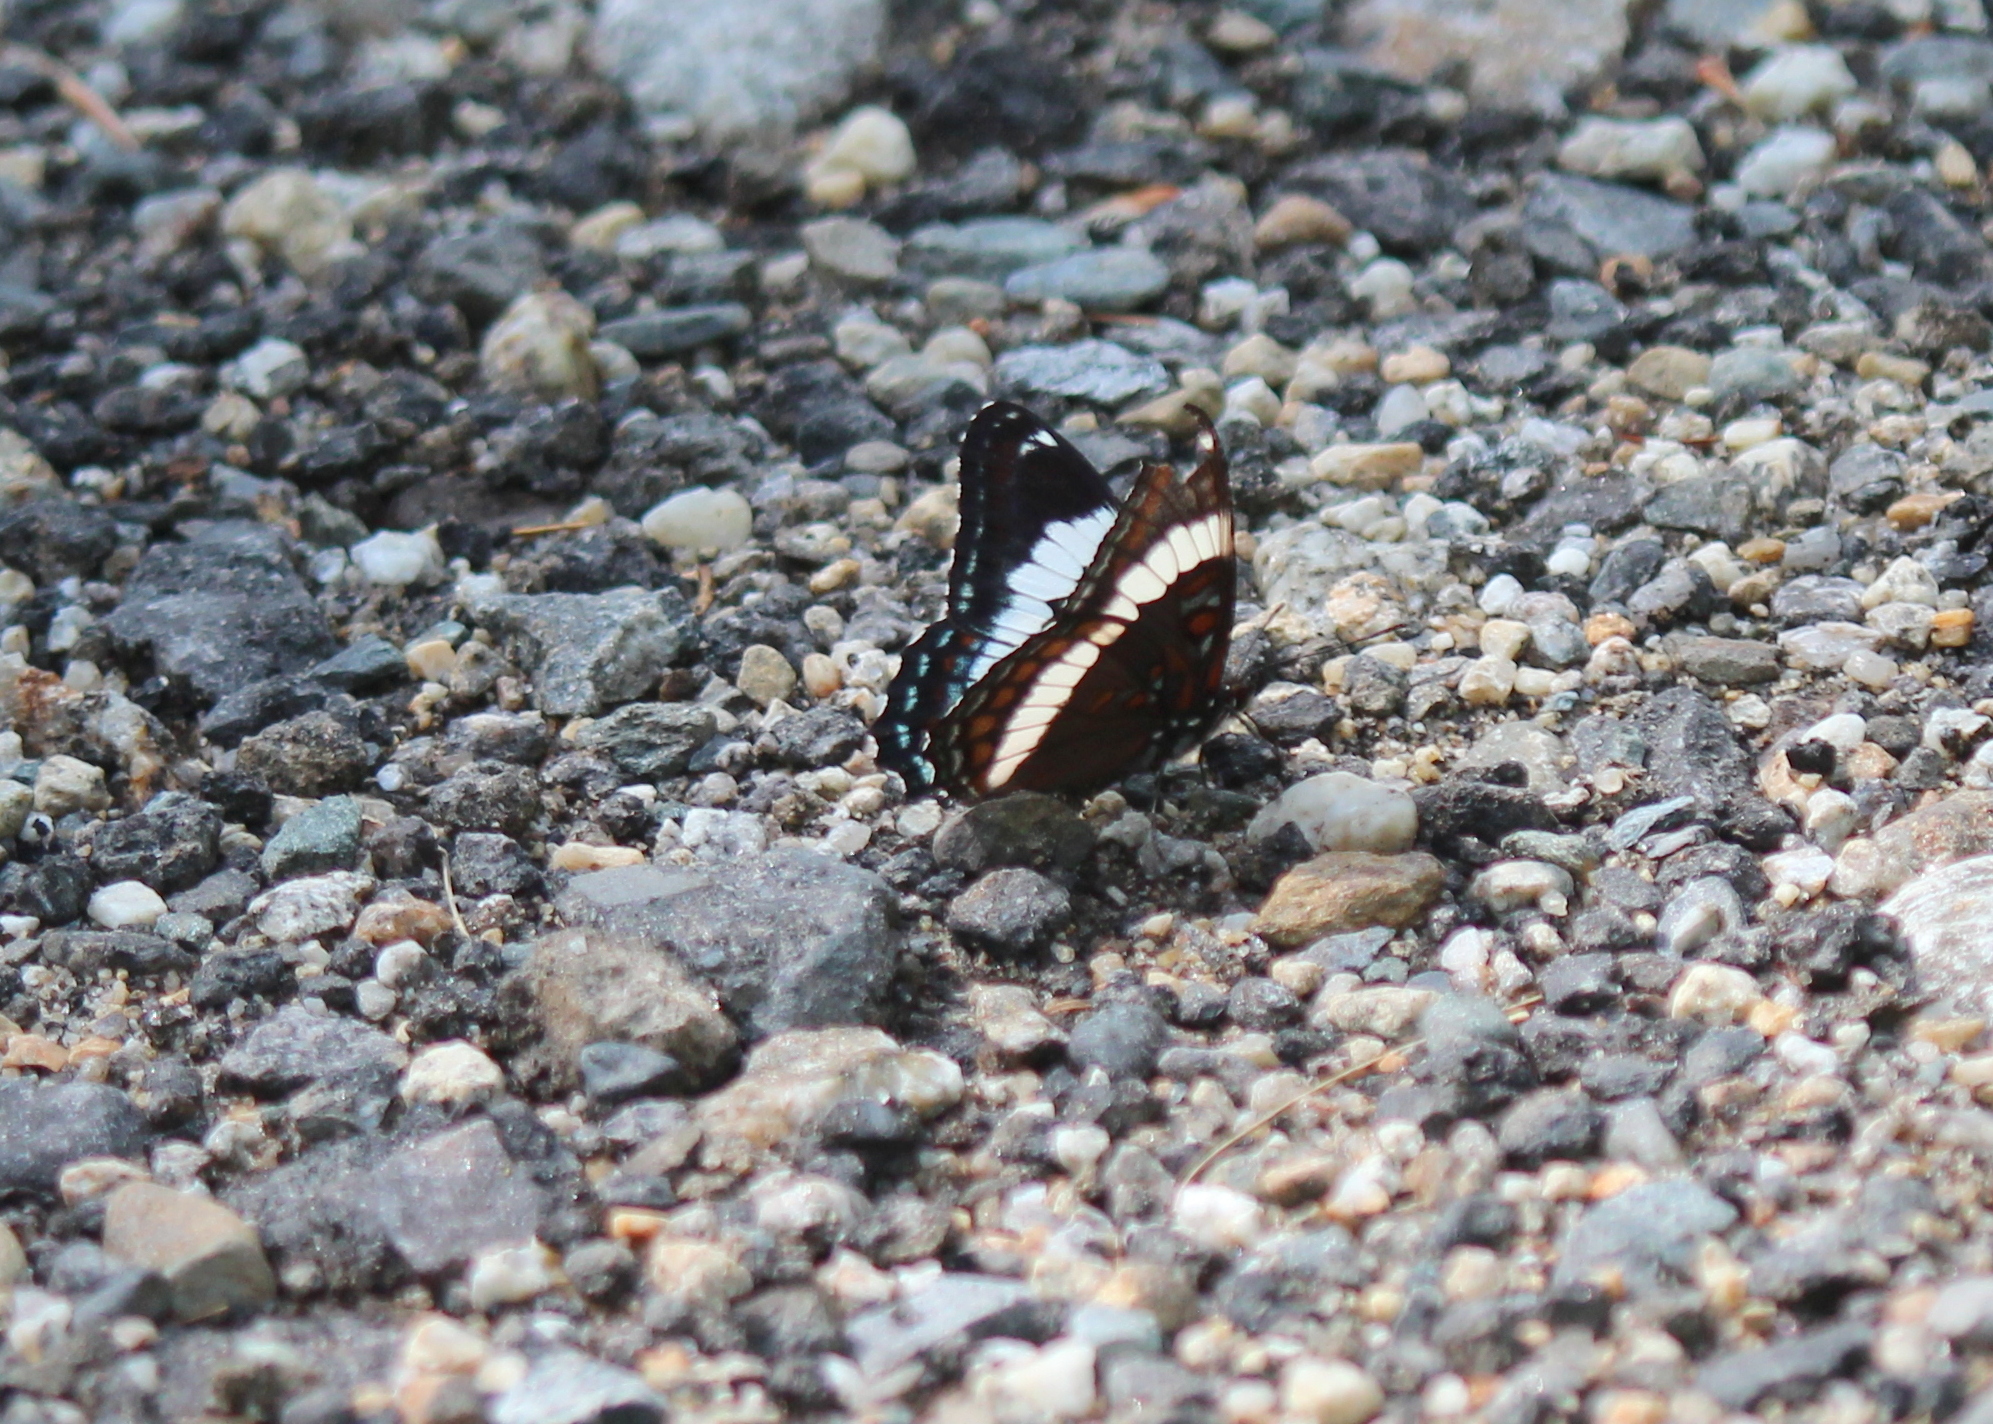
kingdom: Animalia
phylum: Arthropoda
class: Insecta
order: Lepidoptera
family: Nymphalidae
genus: Limenitis
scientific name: Limenitis arthemis
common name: Red-spotted admiral
